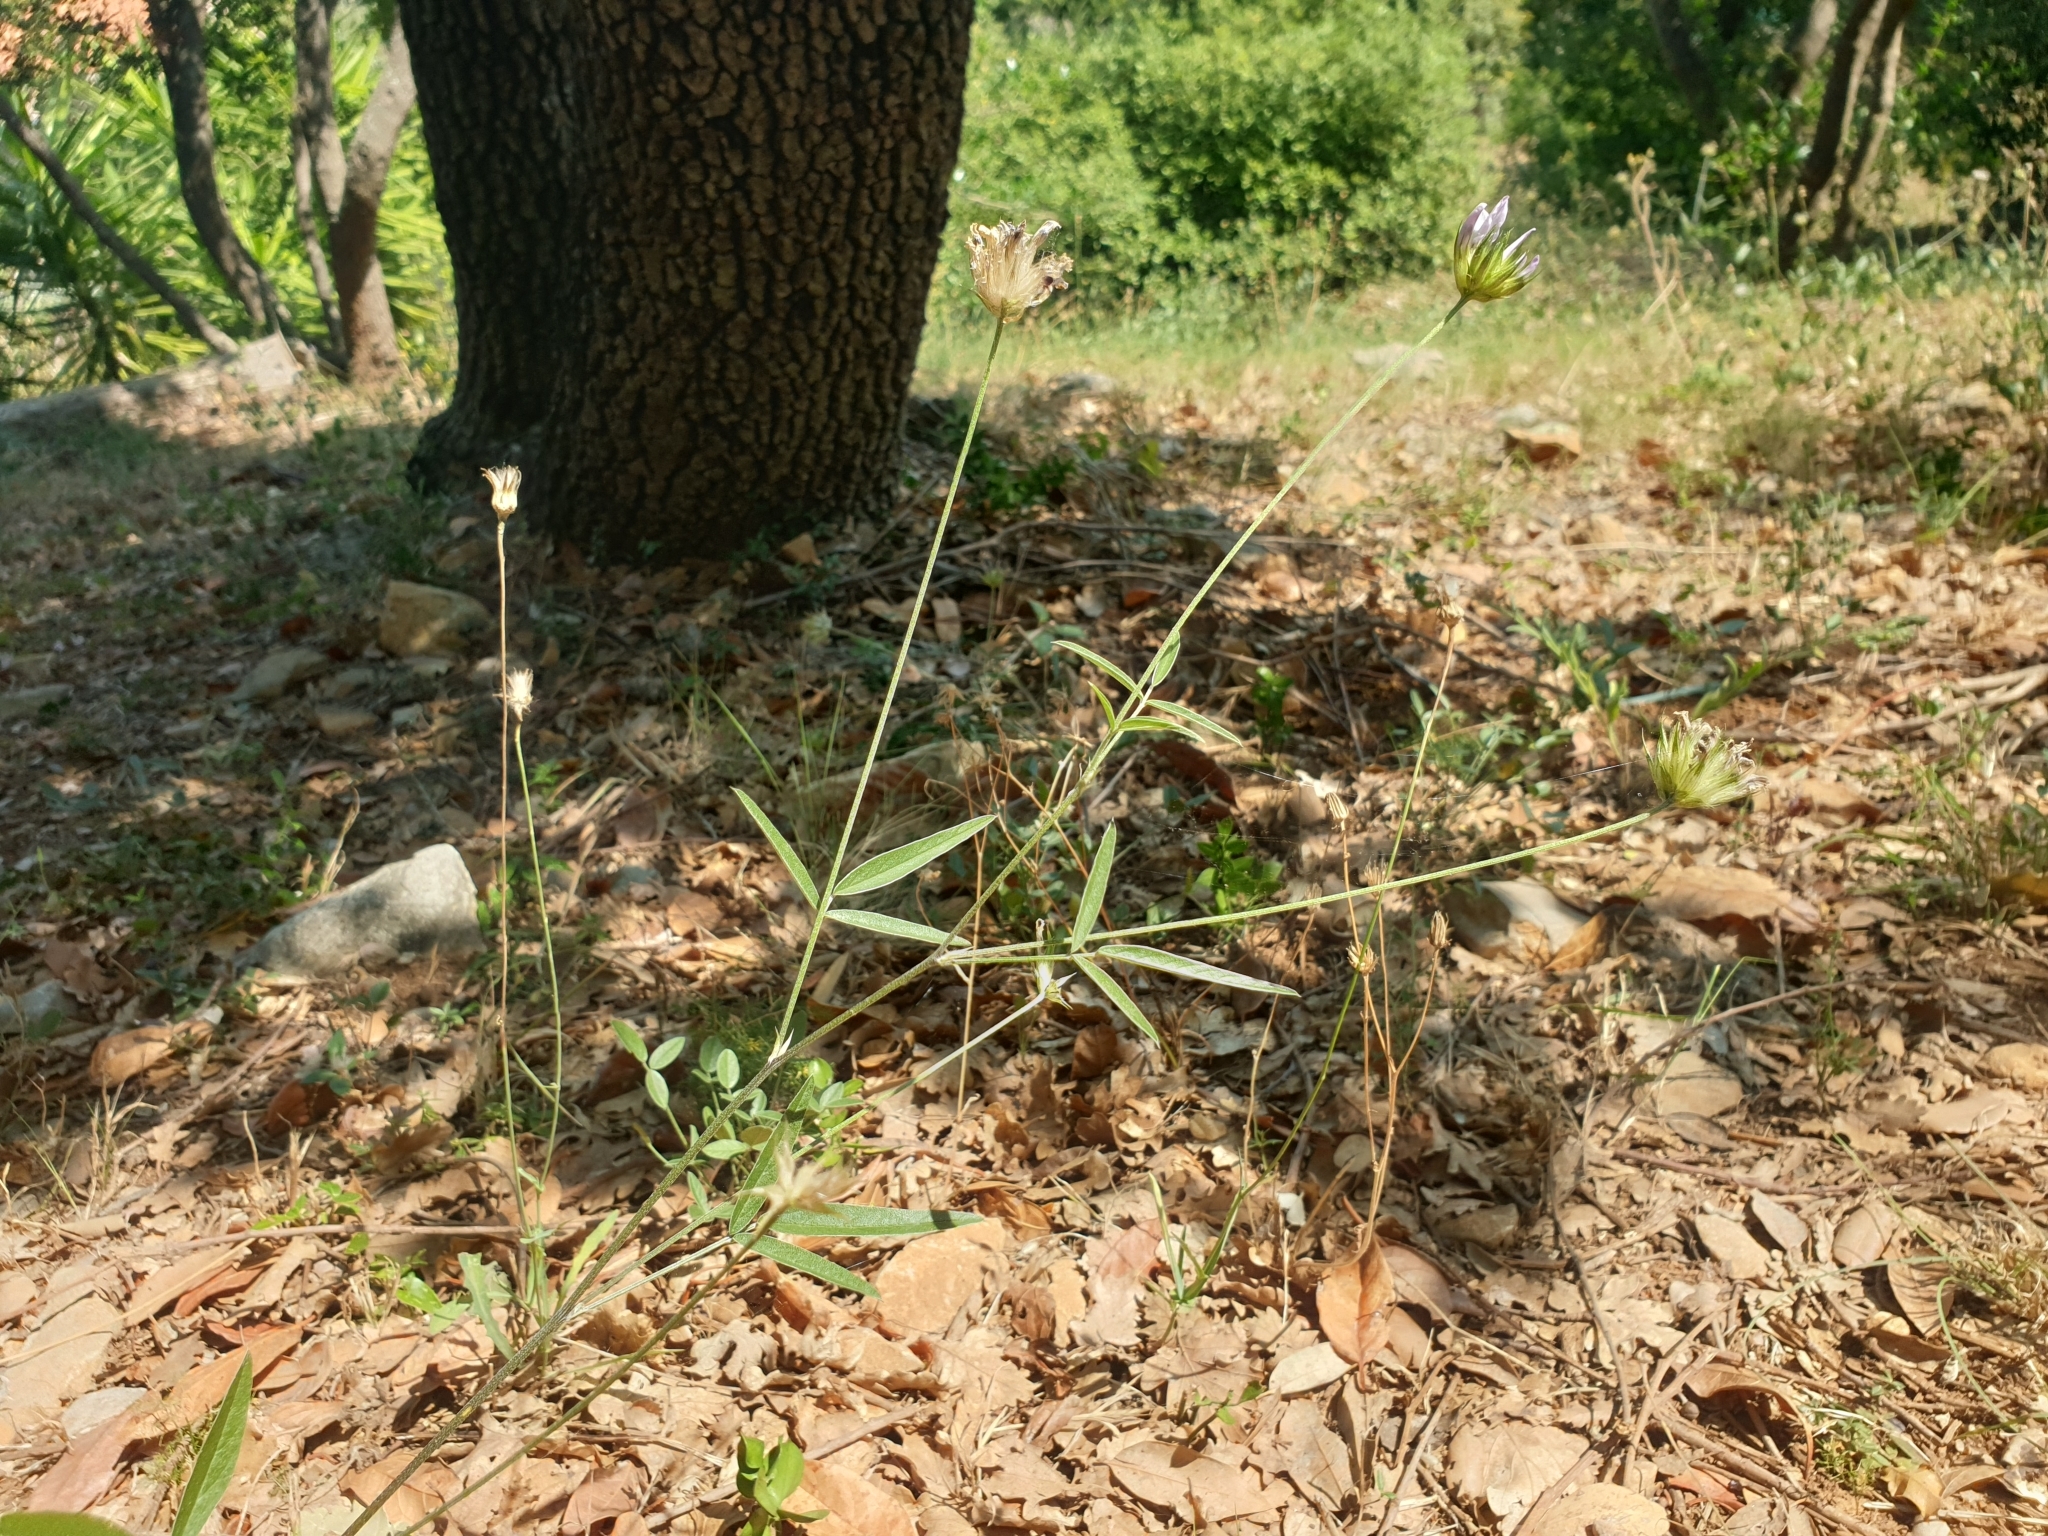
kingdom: Plantae
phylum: Tracheophyta
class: Magnoliopsida
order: Fabales
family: Fabaceae
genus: Bituminaria
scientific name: Bituminaria bituminosa
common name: Arabian pea
